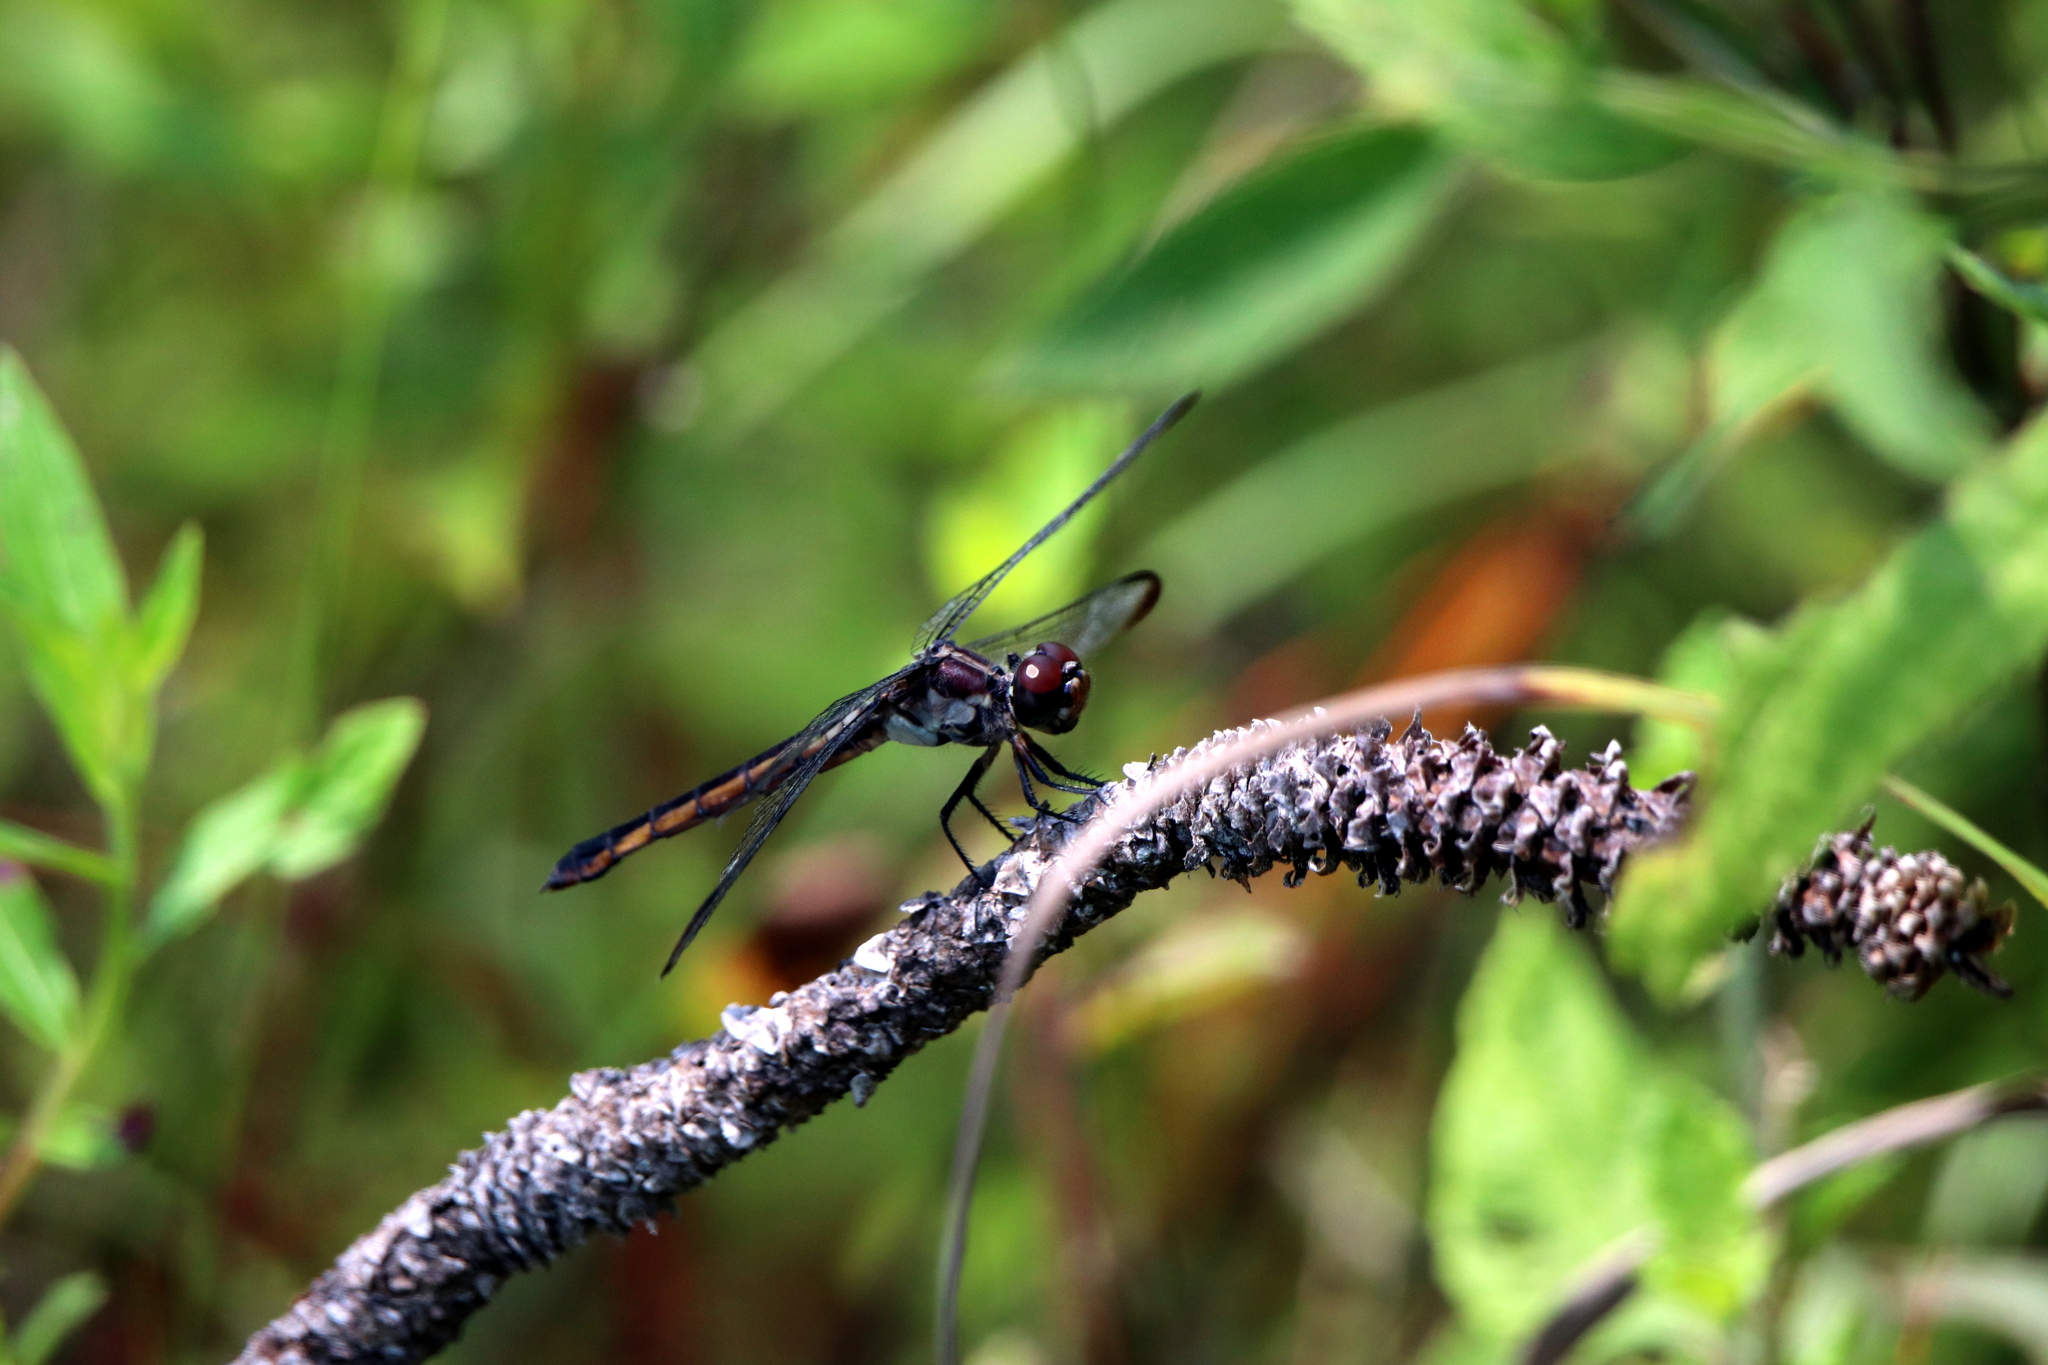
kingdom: Animalia
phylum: Arthropoda
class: Insecta
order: Odonata
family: Libellulidae
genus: Libellula
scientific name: Libellula incesta
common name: Slaty skimmer
